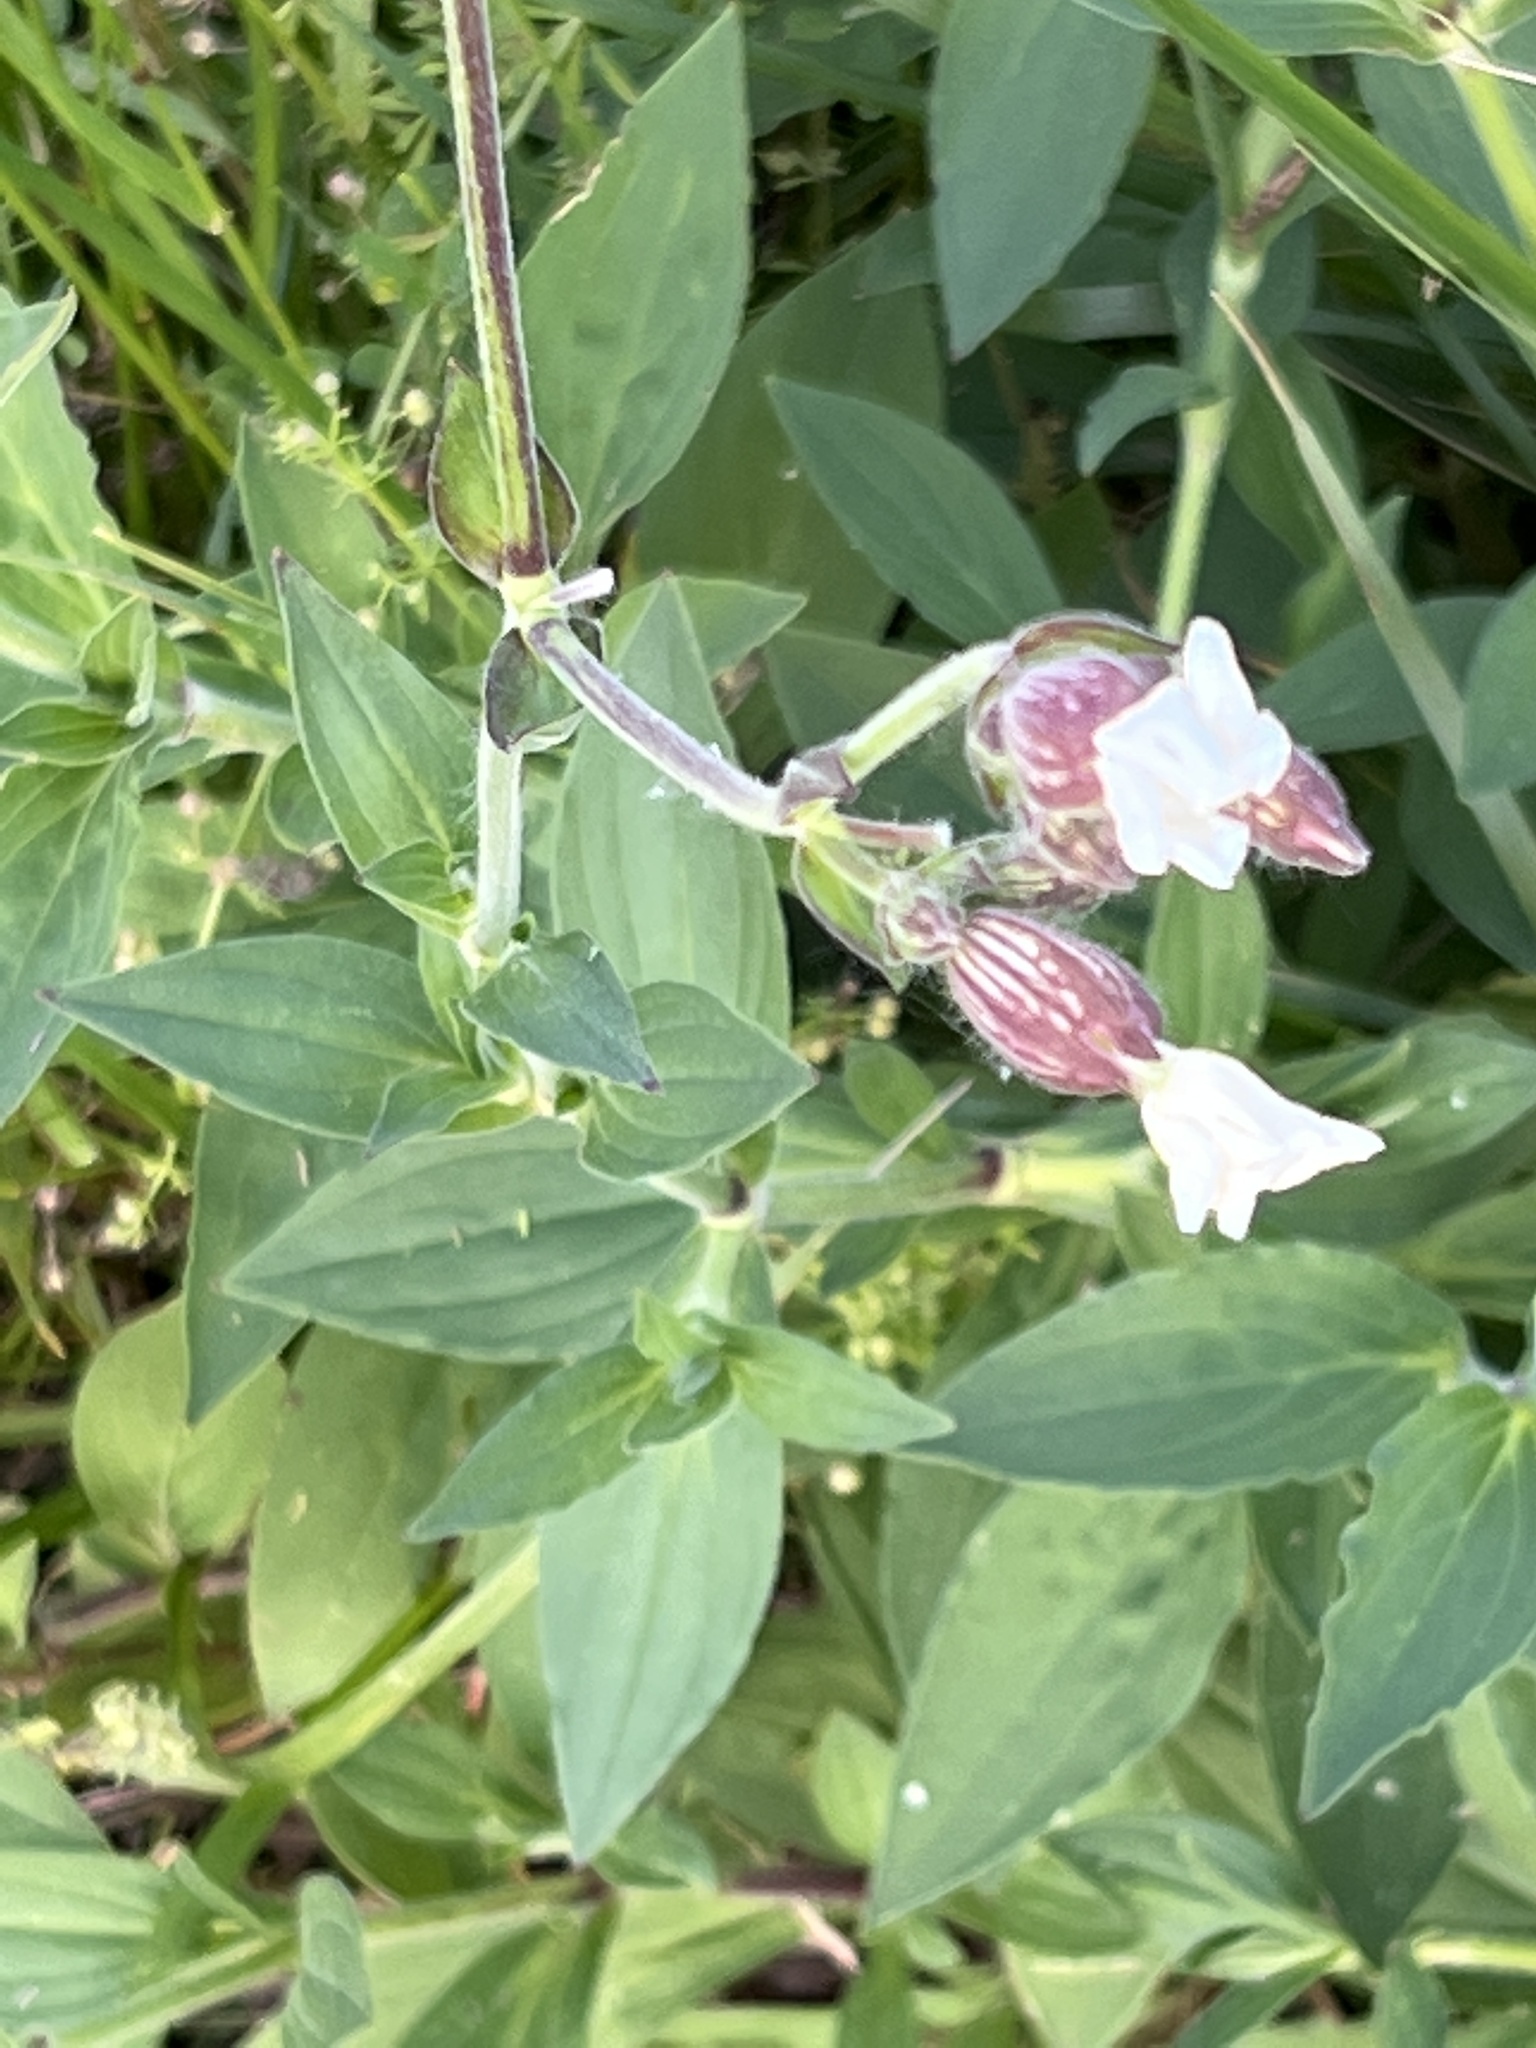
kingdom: Plantae
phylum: Tracheophyta
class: Magnoliopsida
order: Caryophyllales
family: Caryophyllaceae
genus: Silene
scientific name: Silene latifolia
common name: White campion
